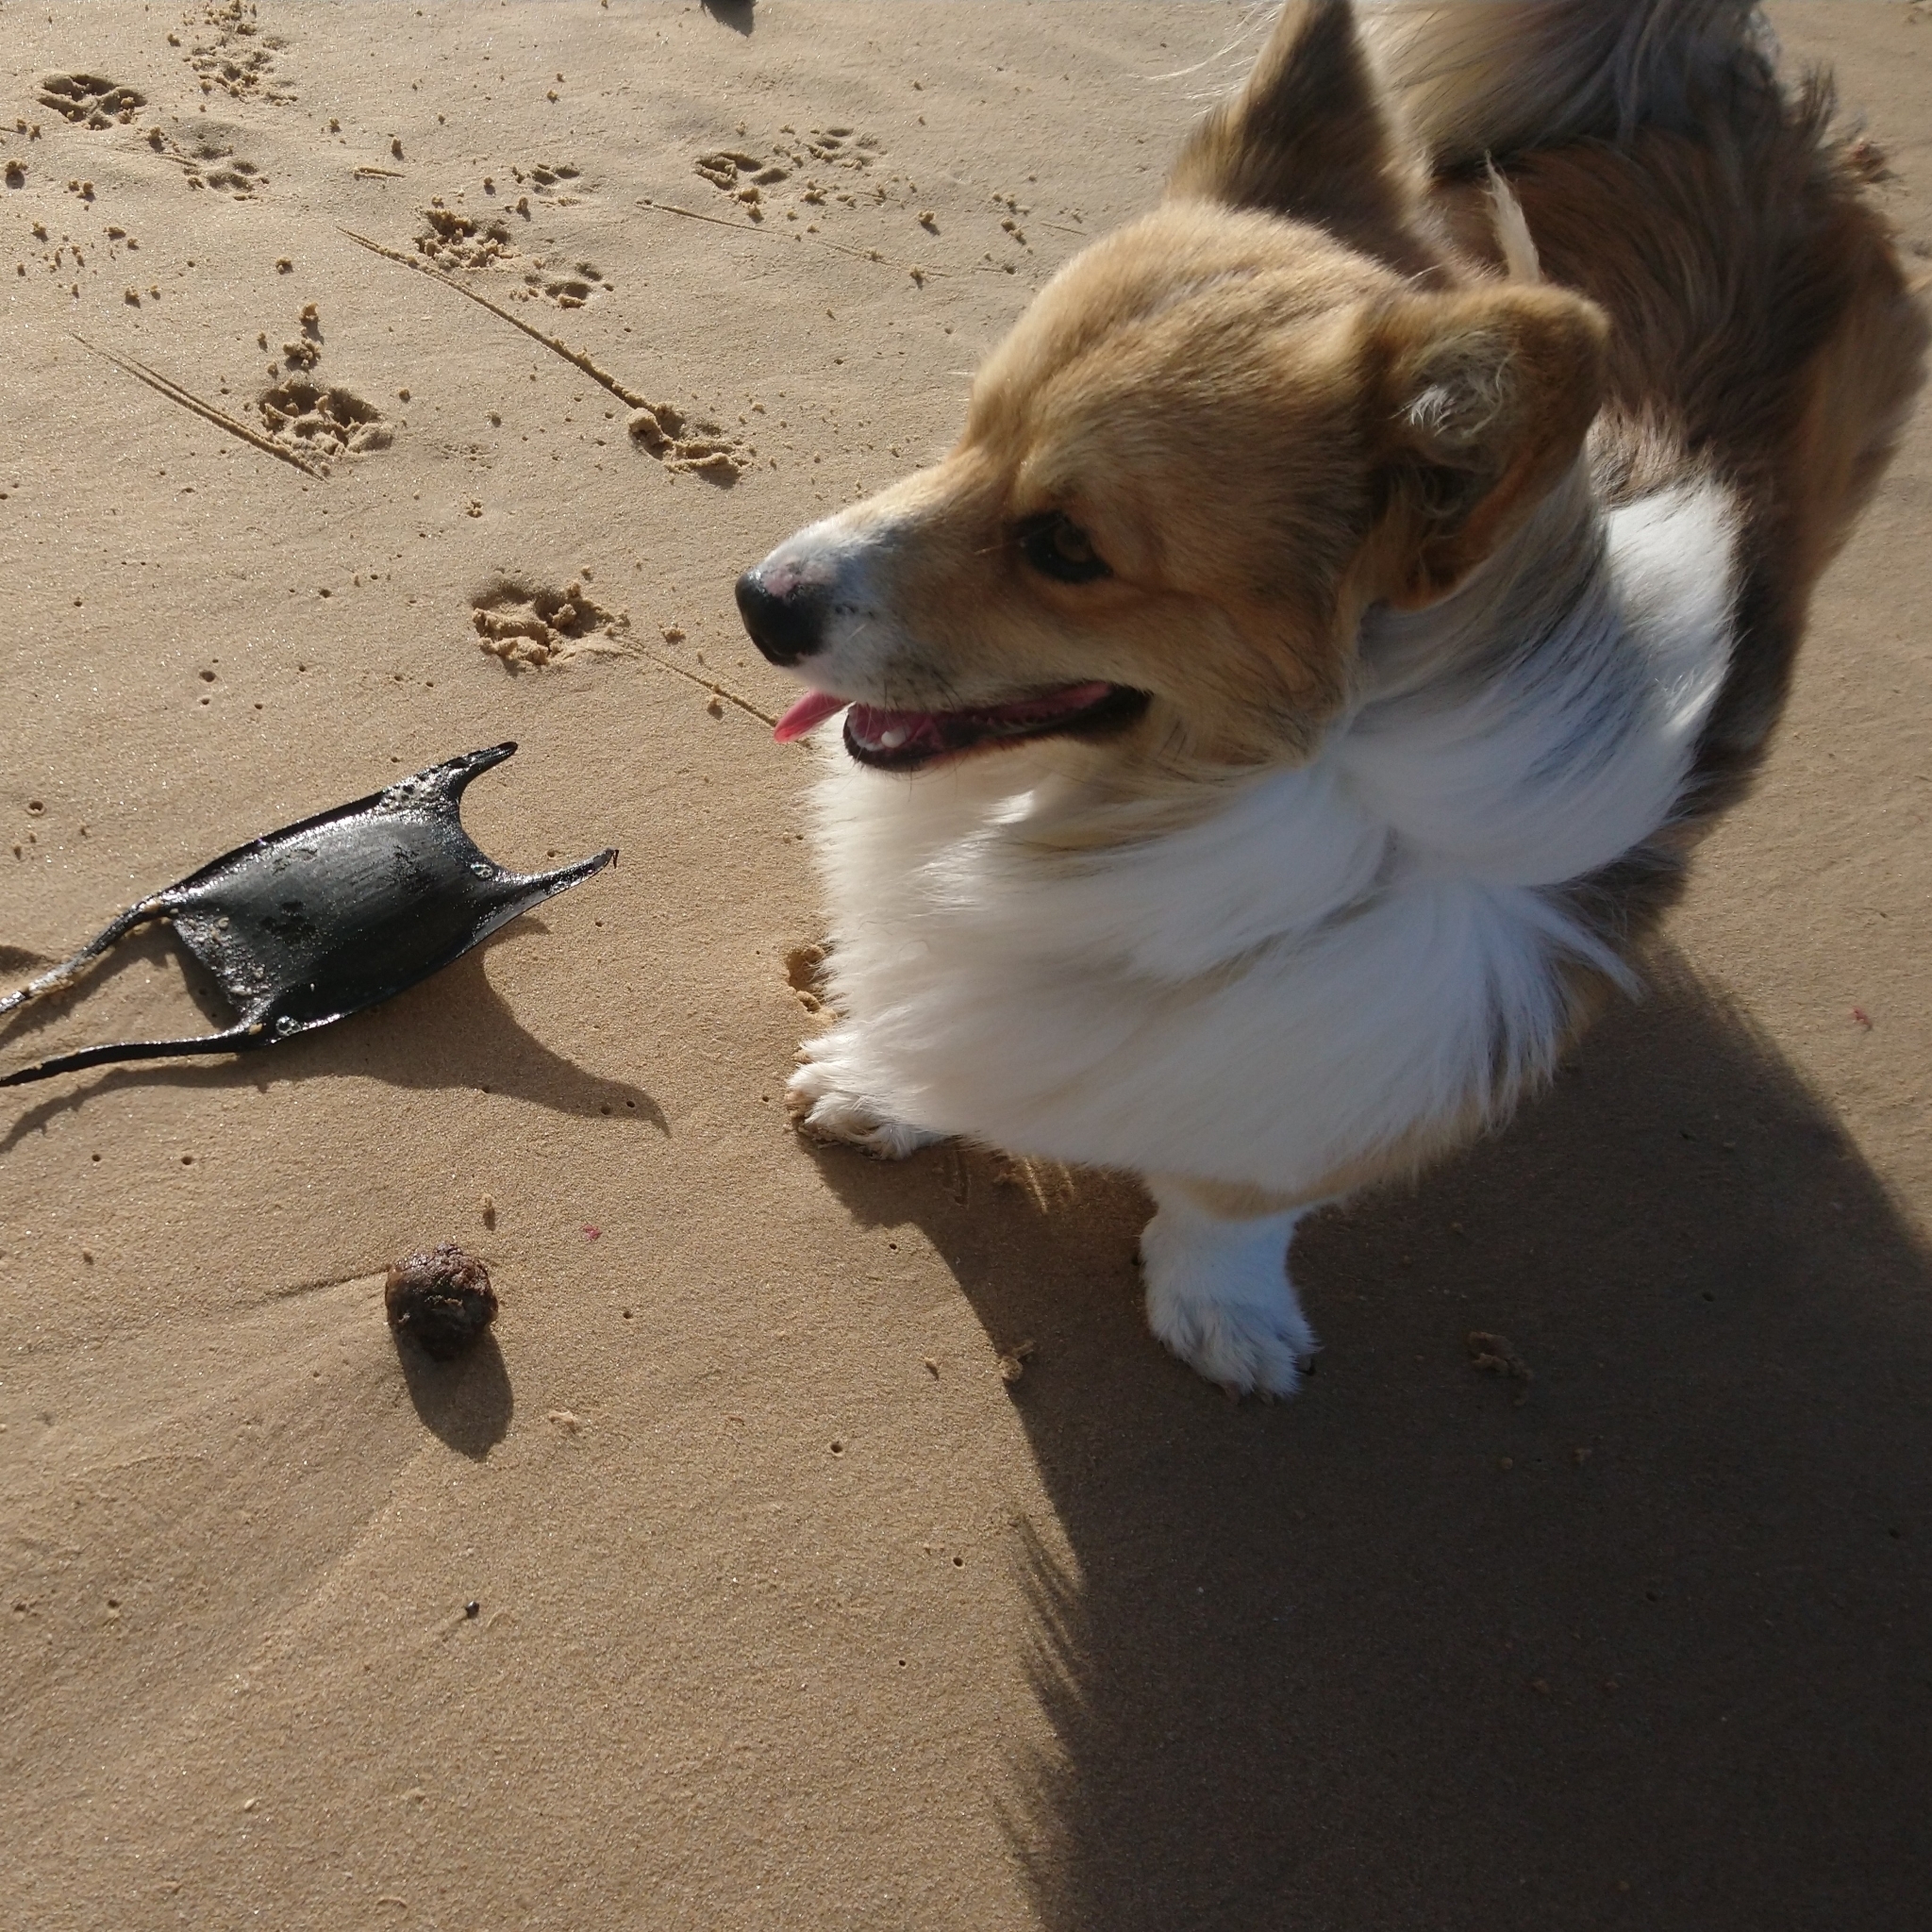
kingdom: Animalia
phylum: Chordata
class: Elasmobranchii
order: Rajiformes
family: Rajidae
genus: Rostroraja
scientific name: Rostroraja alba
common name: White skate
